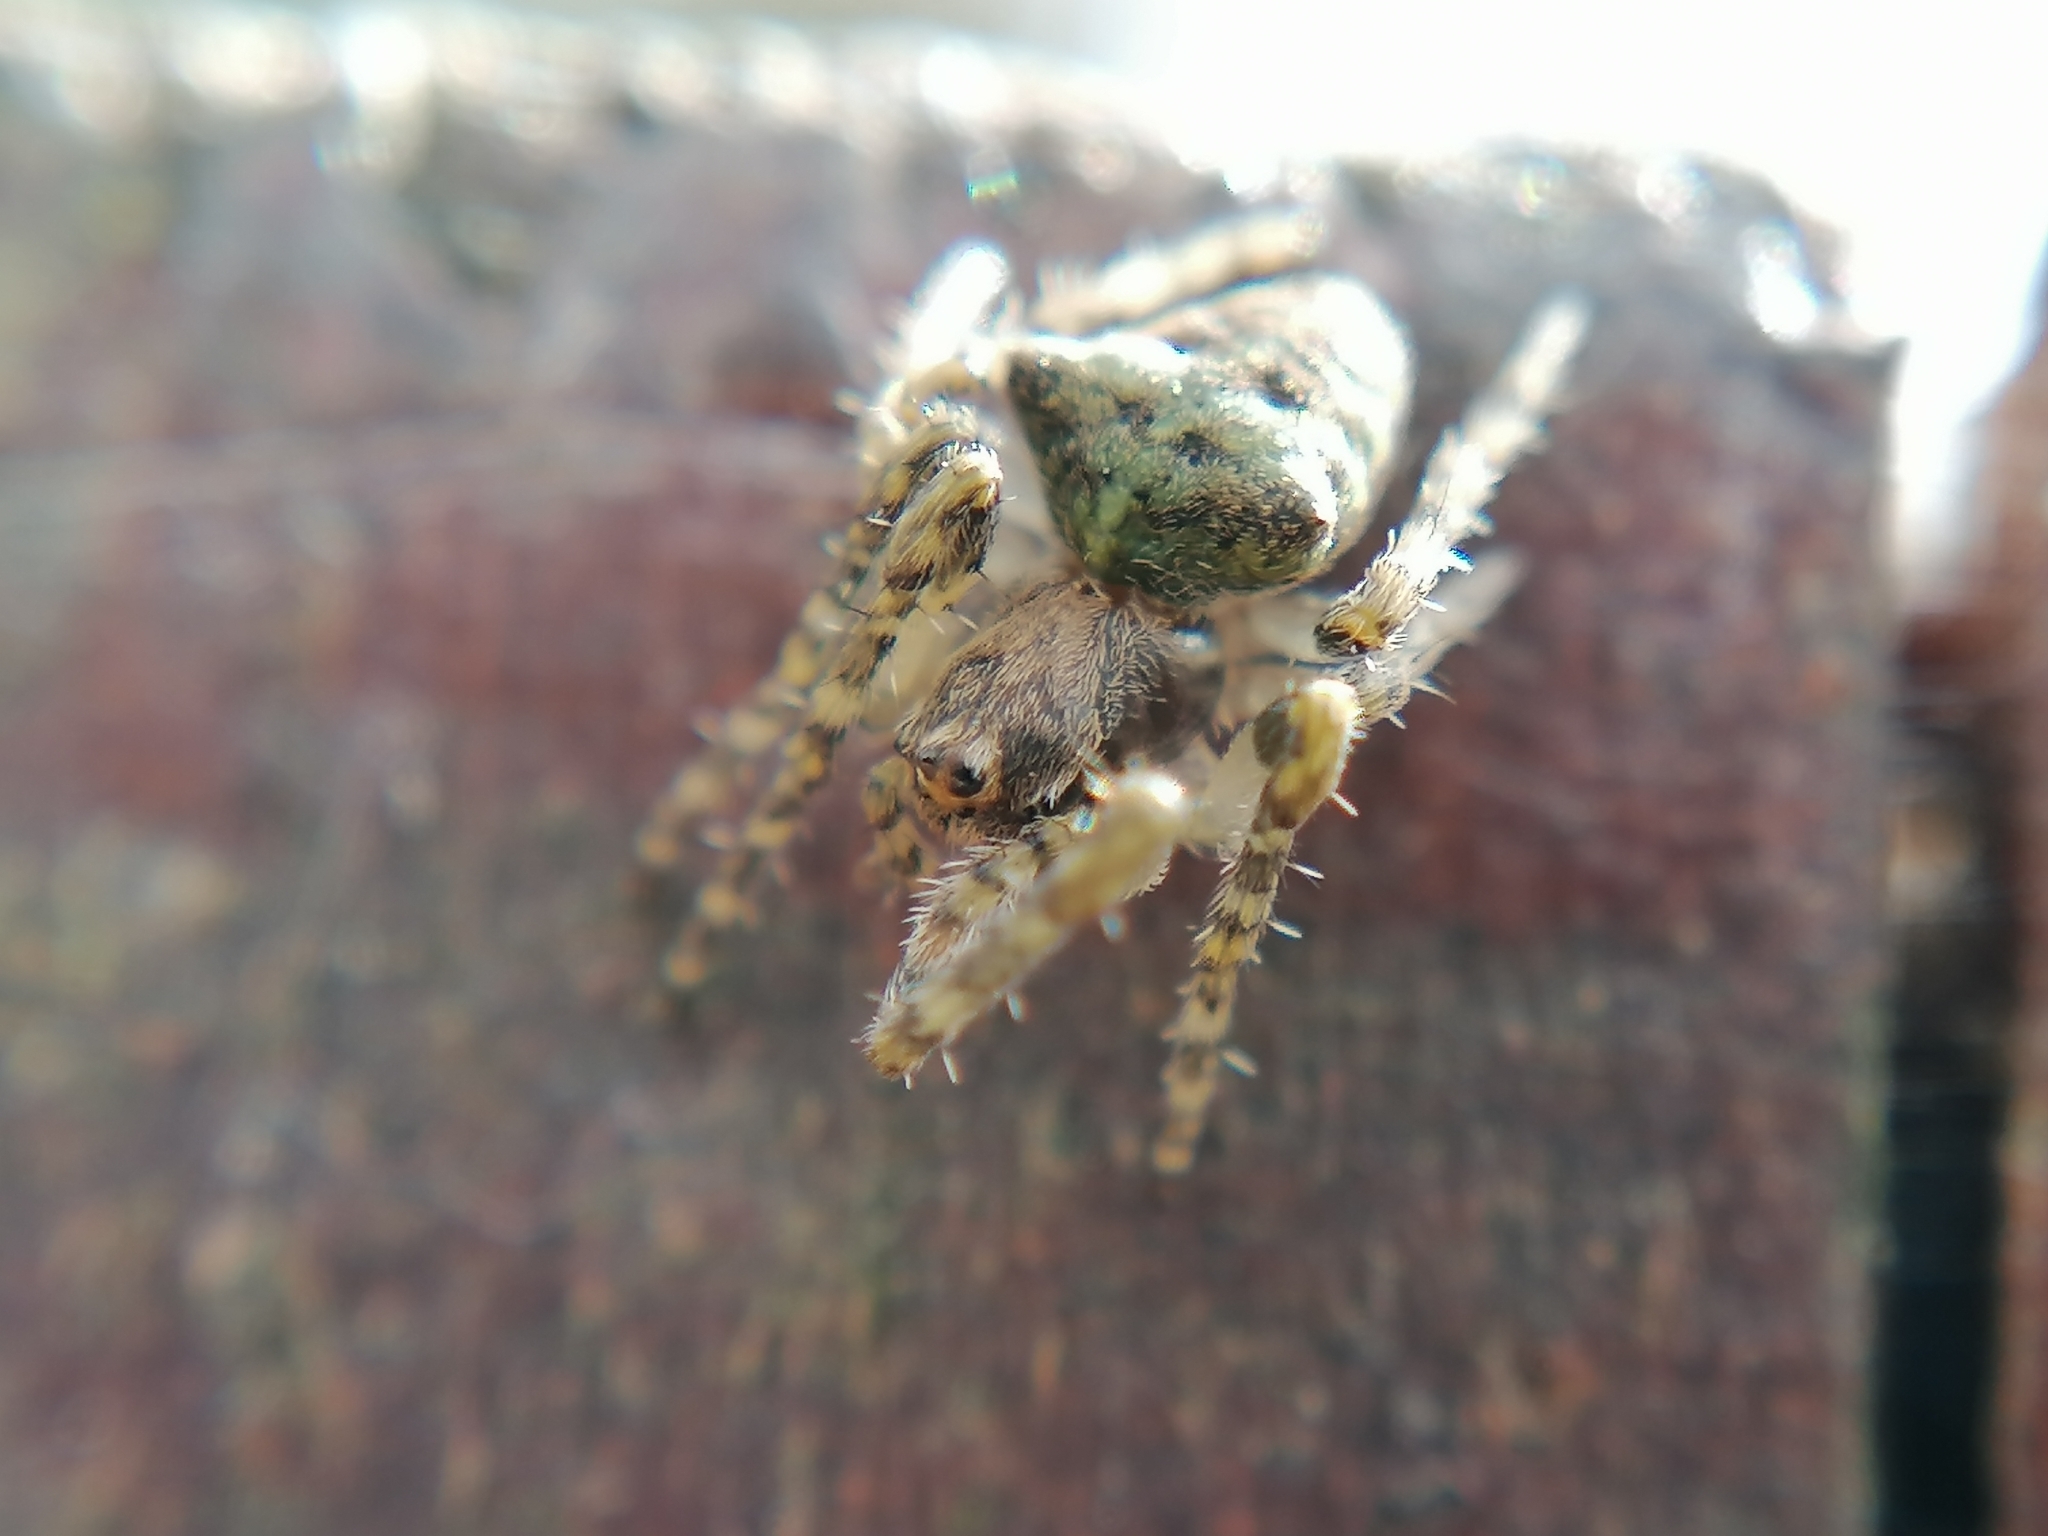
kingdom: Animalia
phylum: Arthropoda
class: Arachnida
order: Araneae
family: Araneidae
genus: Gibbaranea
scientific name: Gibbaranea gibbosa
